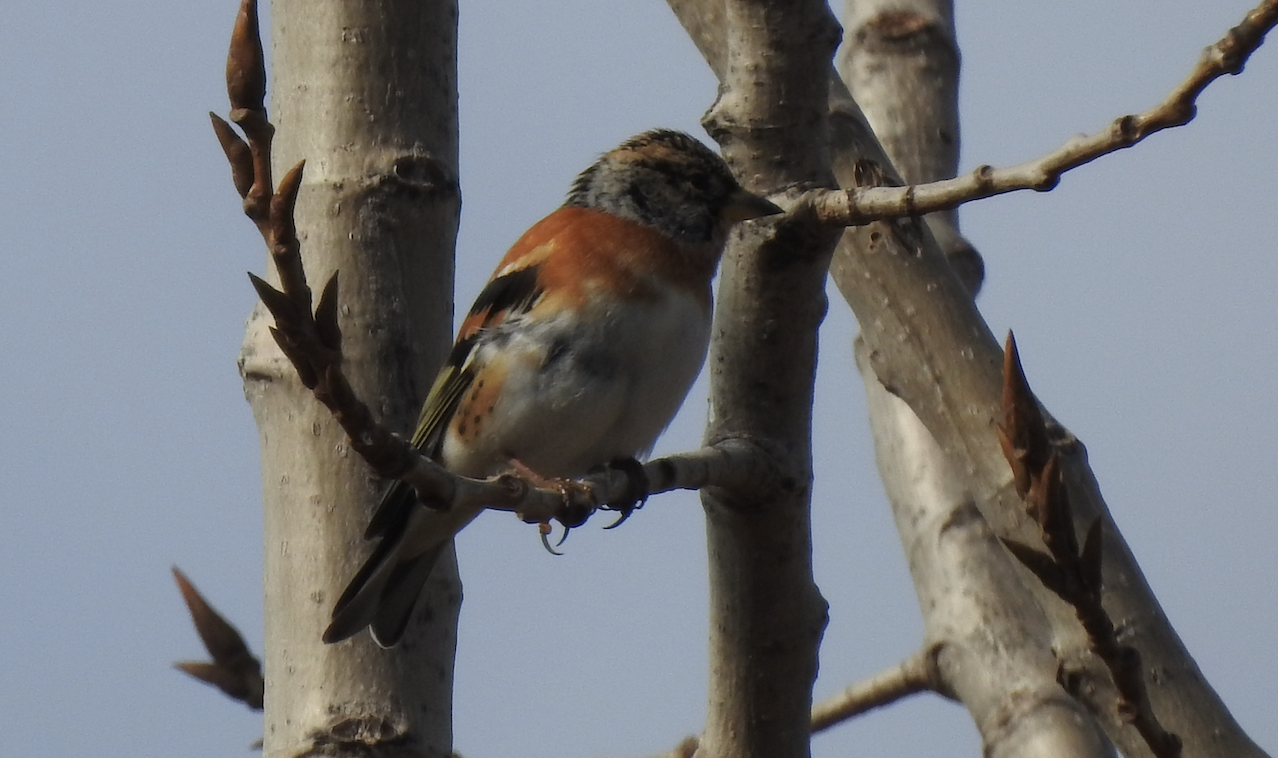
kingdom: Animalia
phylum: Chordata
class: Aves
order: Passeriformes
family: Fringillidae
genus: Fringilla
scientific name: Fringilla montifringilla
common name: Brambling
